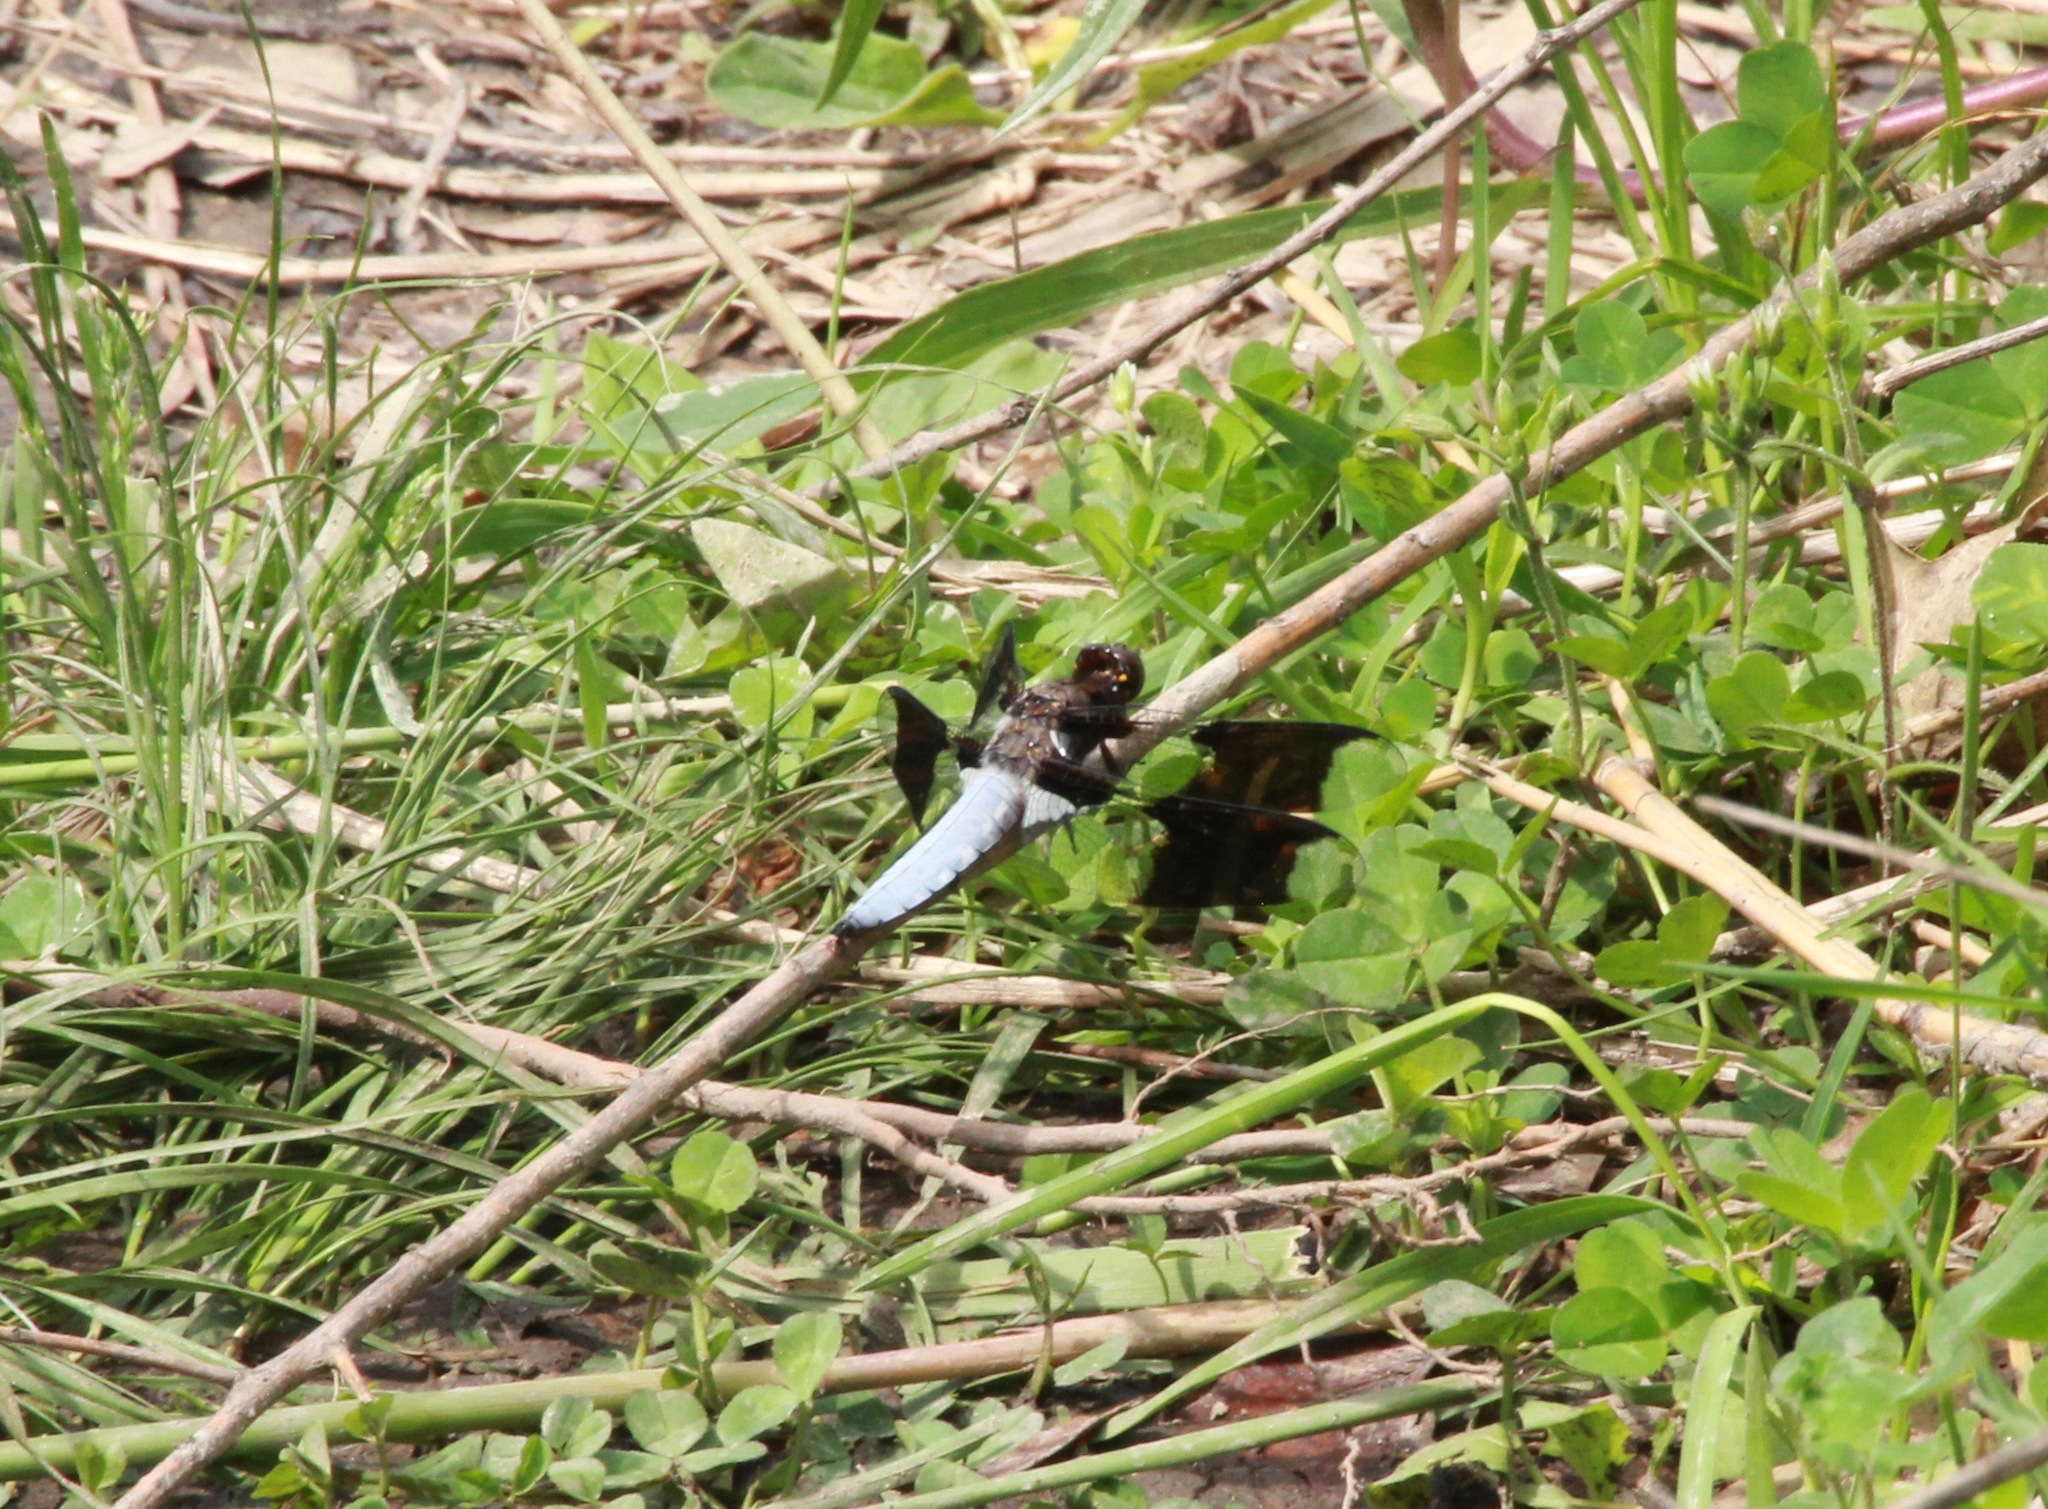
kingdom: Animalia
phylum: Arthropoda
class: Insecta
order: Odonata
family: Libellulidae
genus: Plathemis
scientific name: Plathemis lydia
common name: Common whitetail
